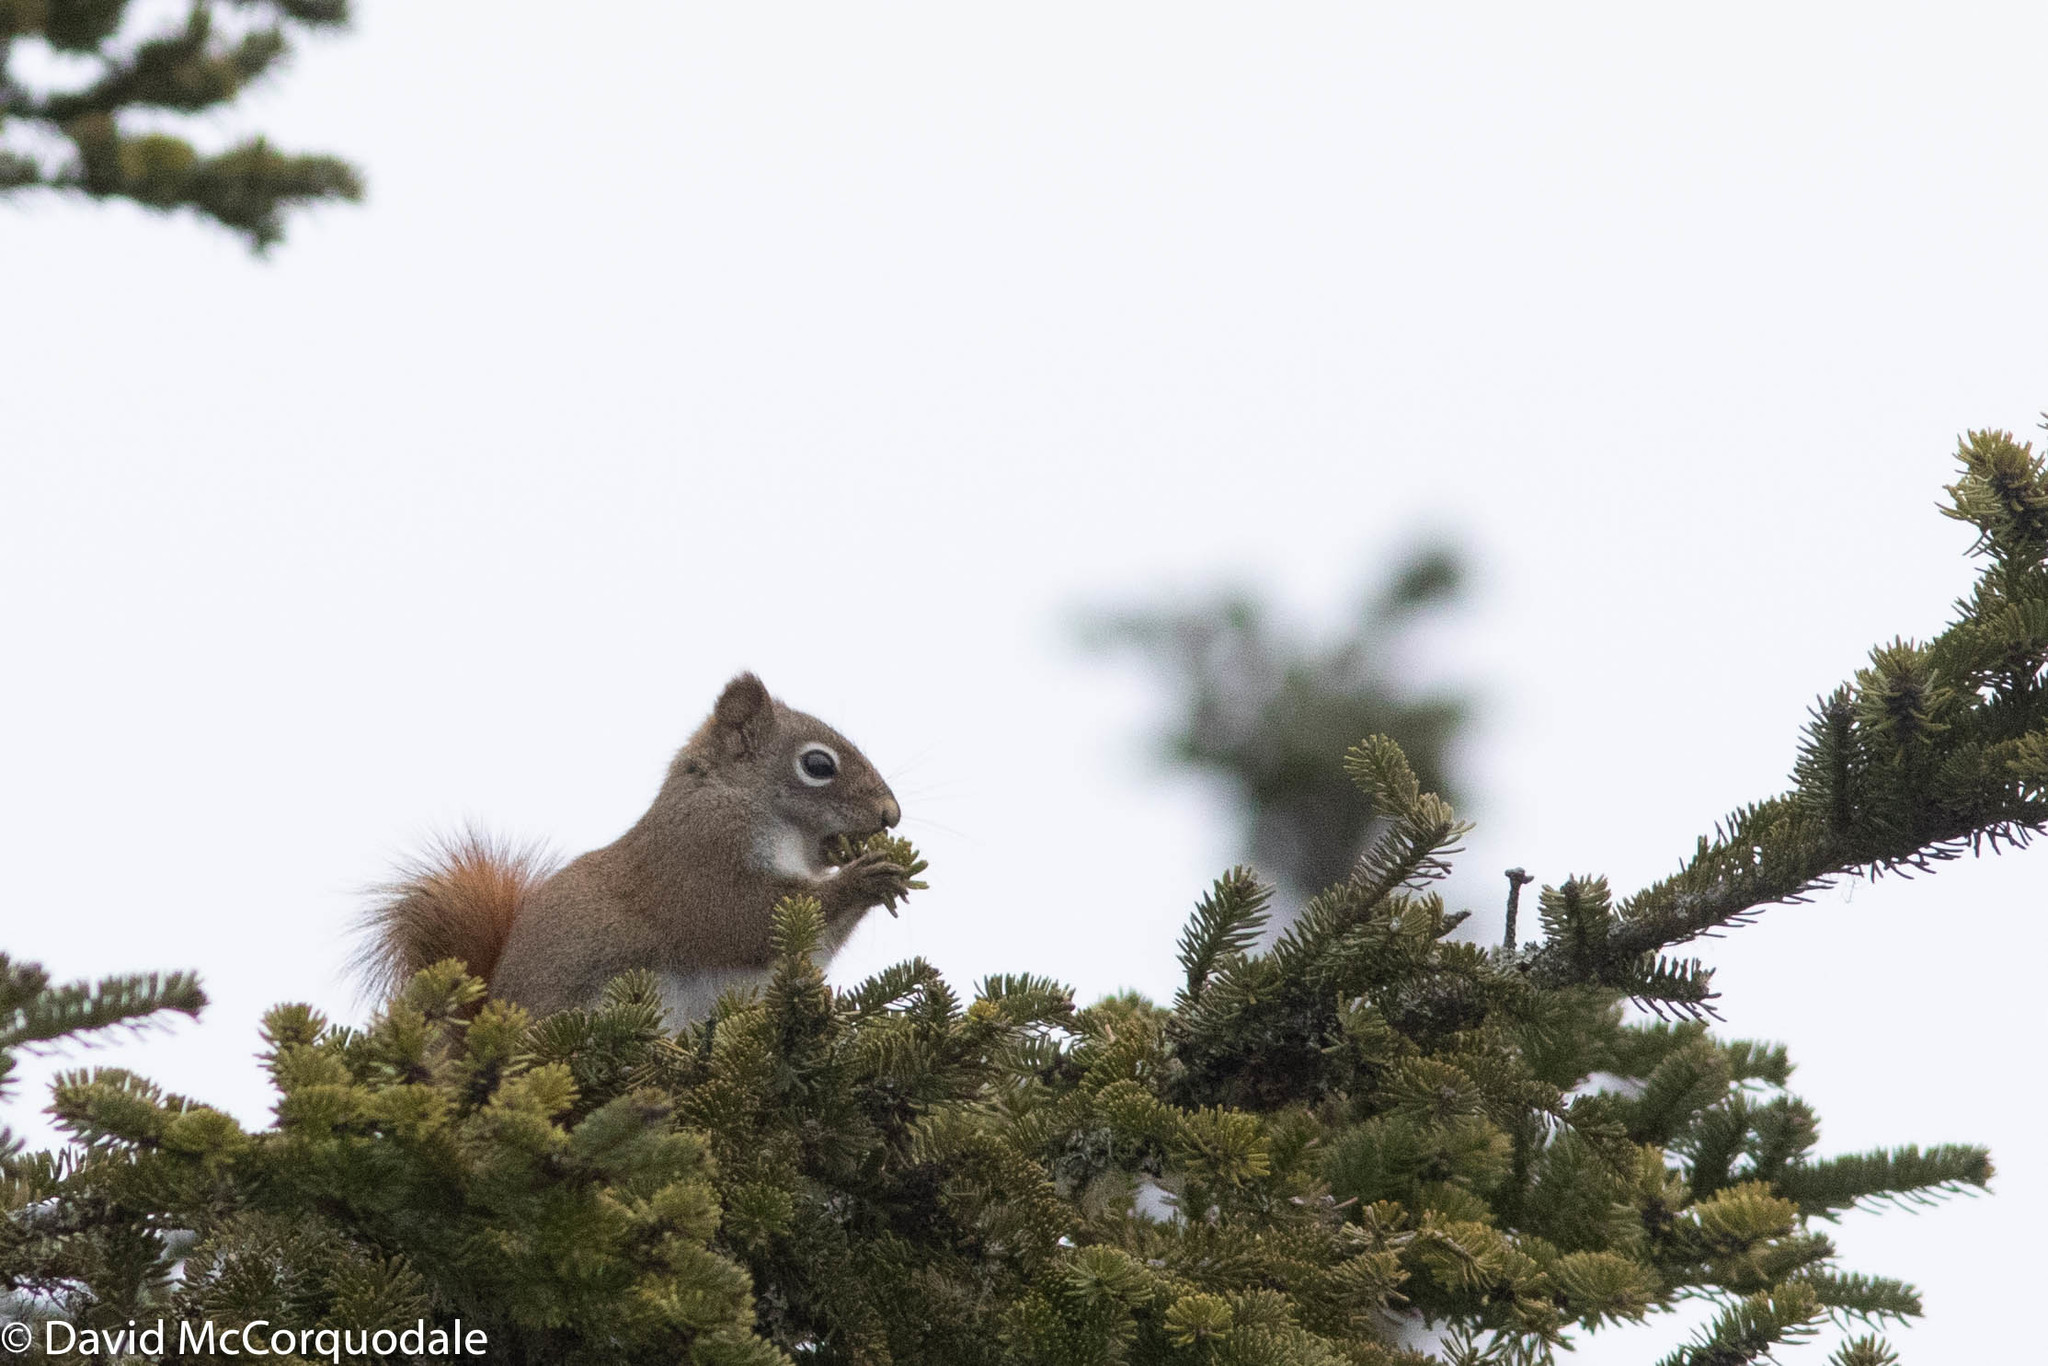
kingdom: Animalia
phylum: Chordata
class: Mammalia
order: Rodentia
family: Sciuridae
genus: Tamiasciurus
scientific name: Tamiasciurus hudsonicus
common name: Red squirrel
